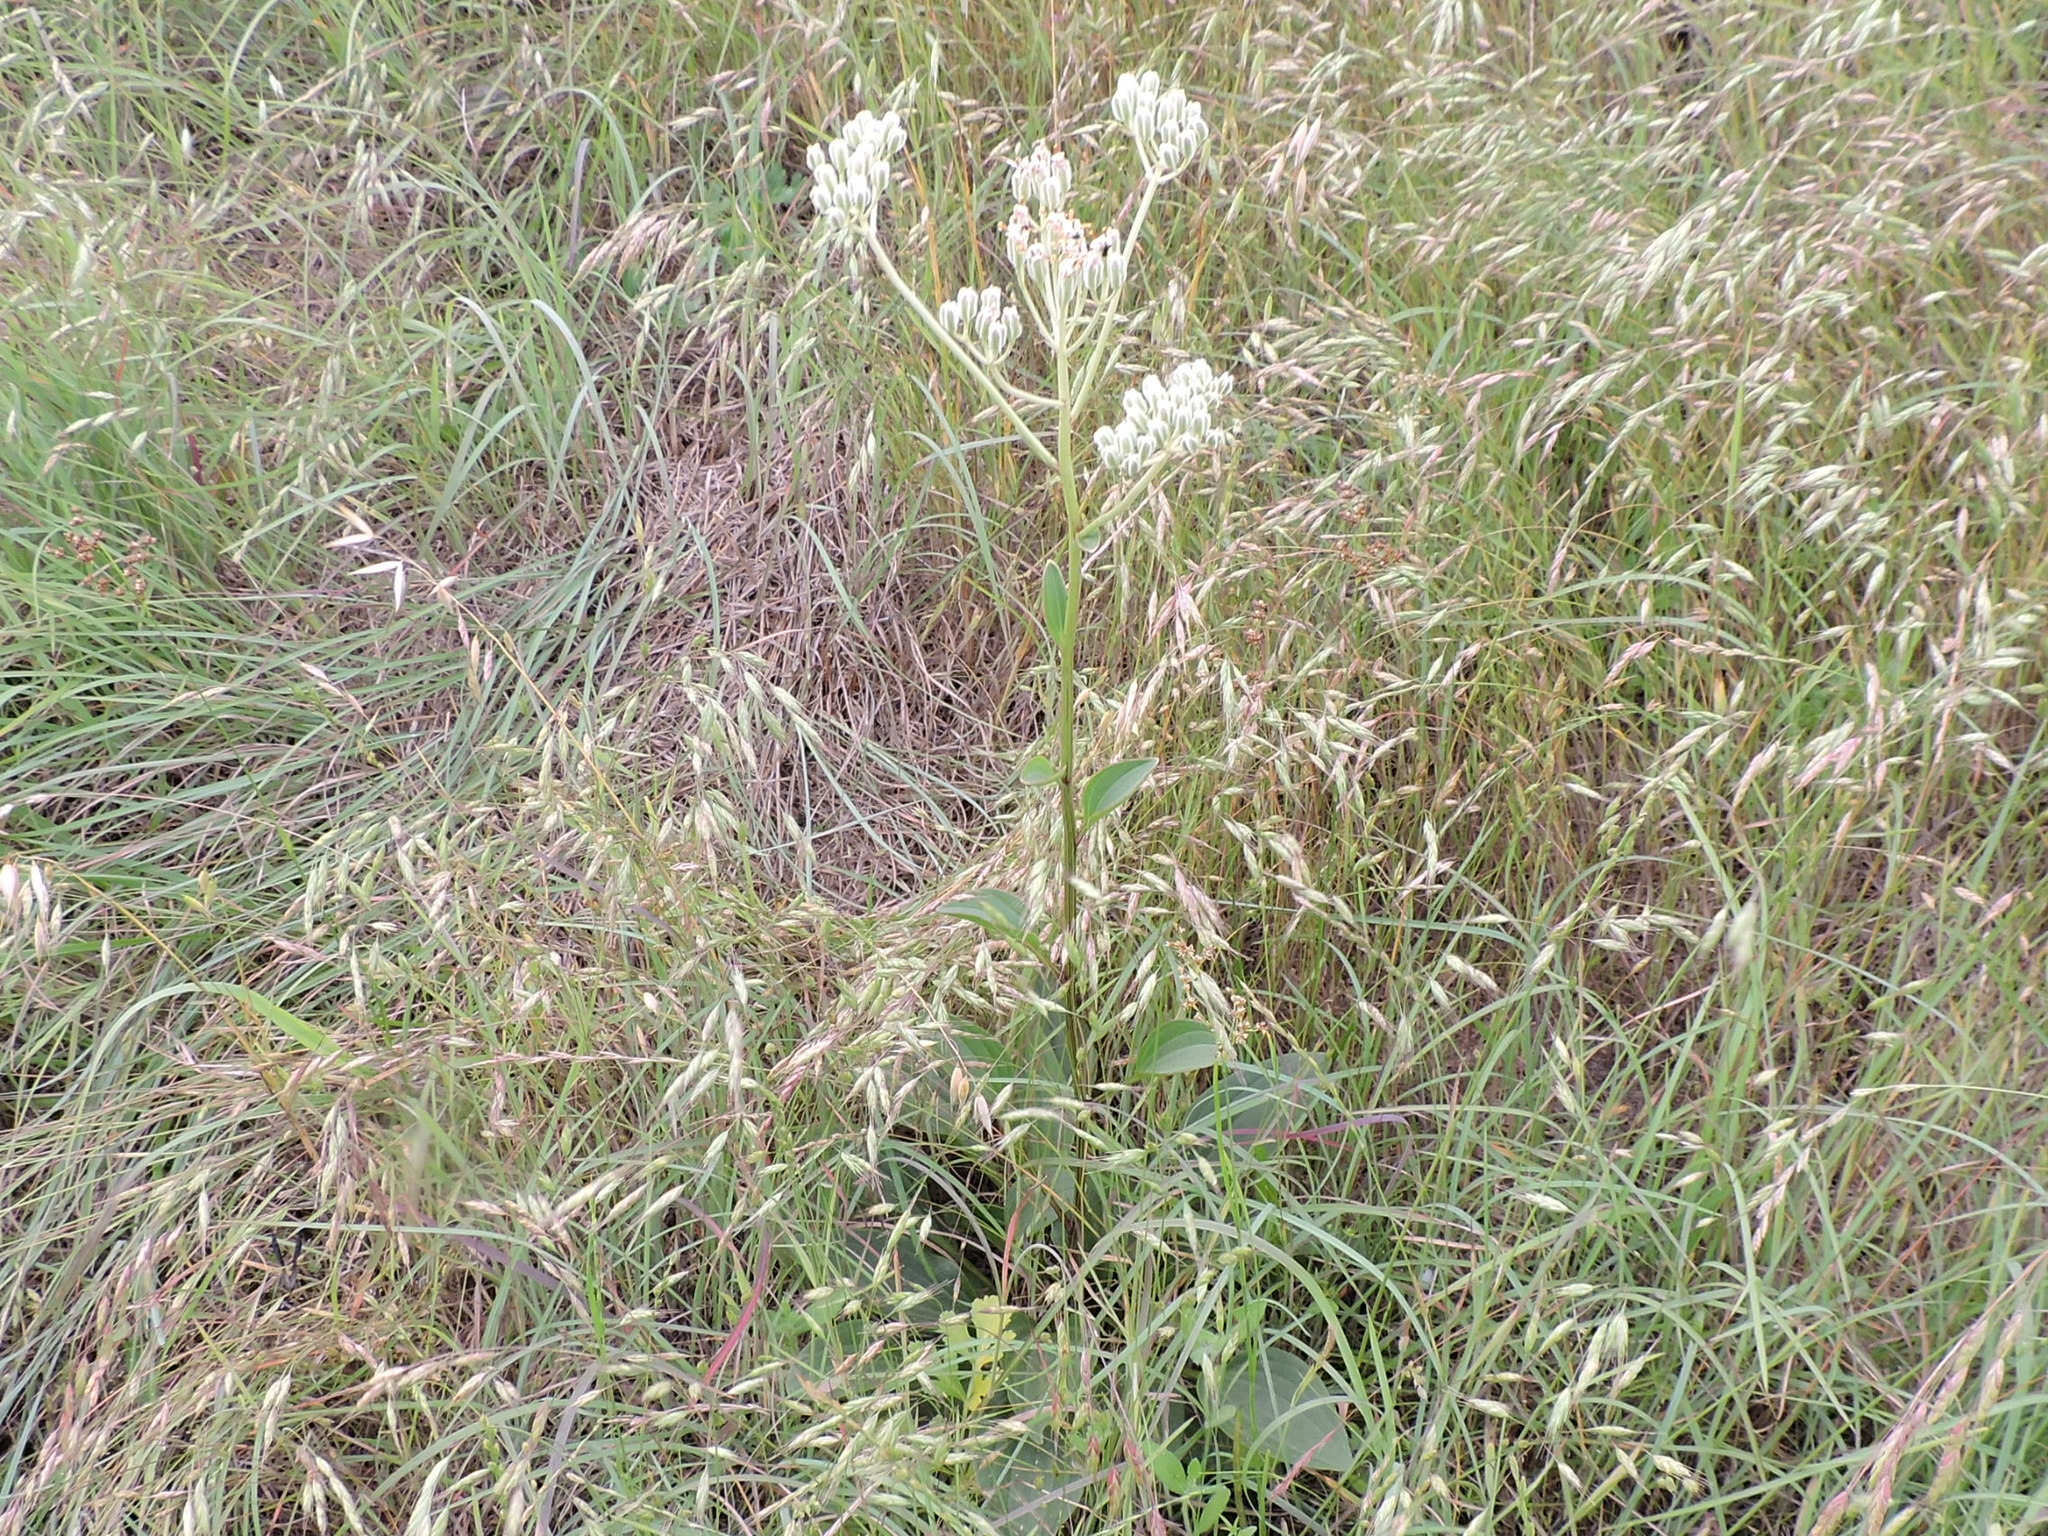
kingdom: Plantae
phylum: Tracheophyta
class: Magnoliopsida
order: Asterales
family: Asteraceae
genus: Arnoglossum
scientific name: Arnoglossum plantagineum
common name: Groove-stemmed indian-plantain
